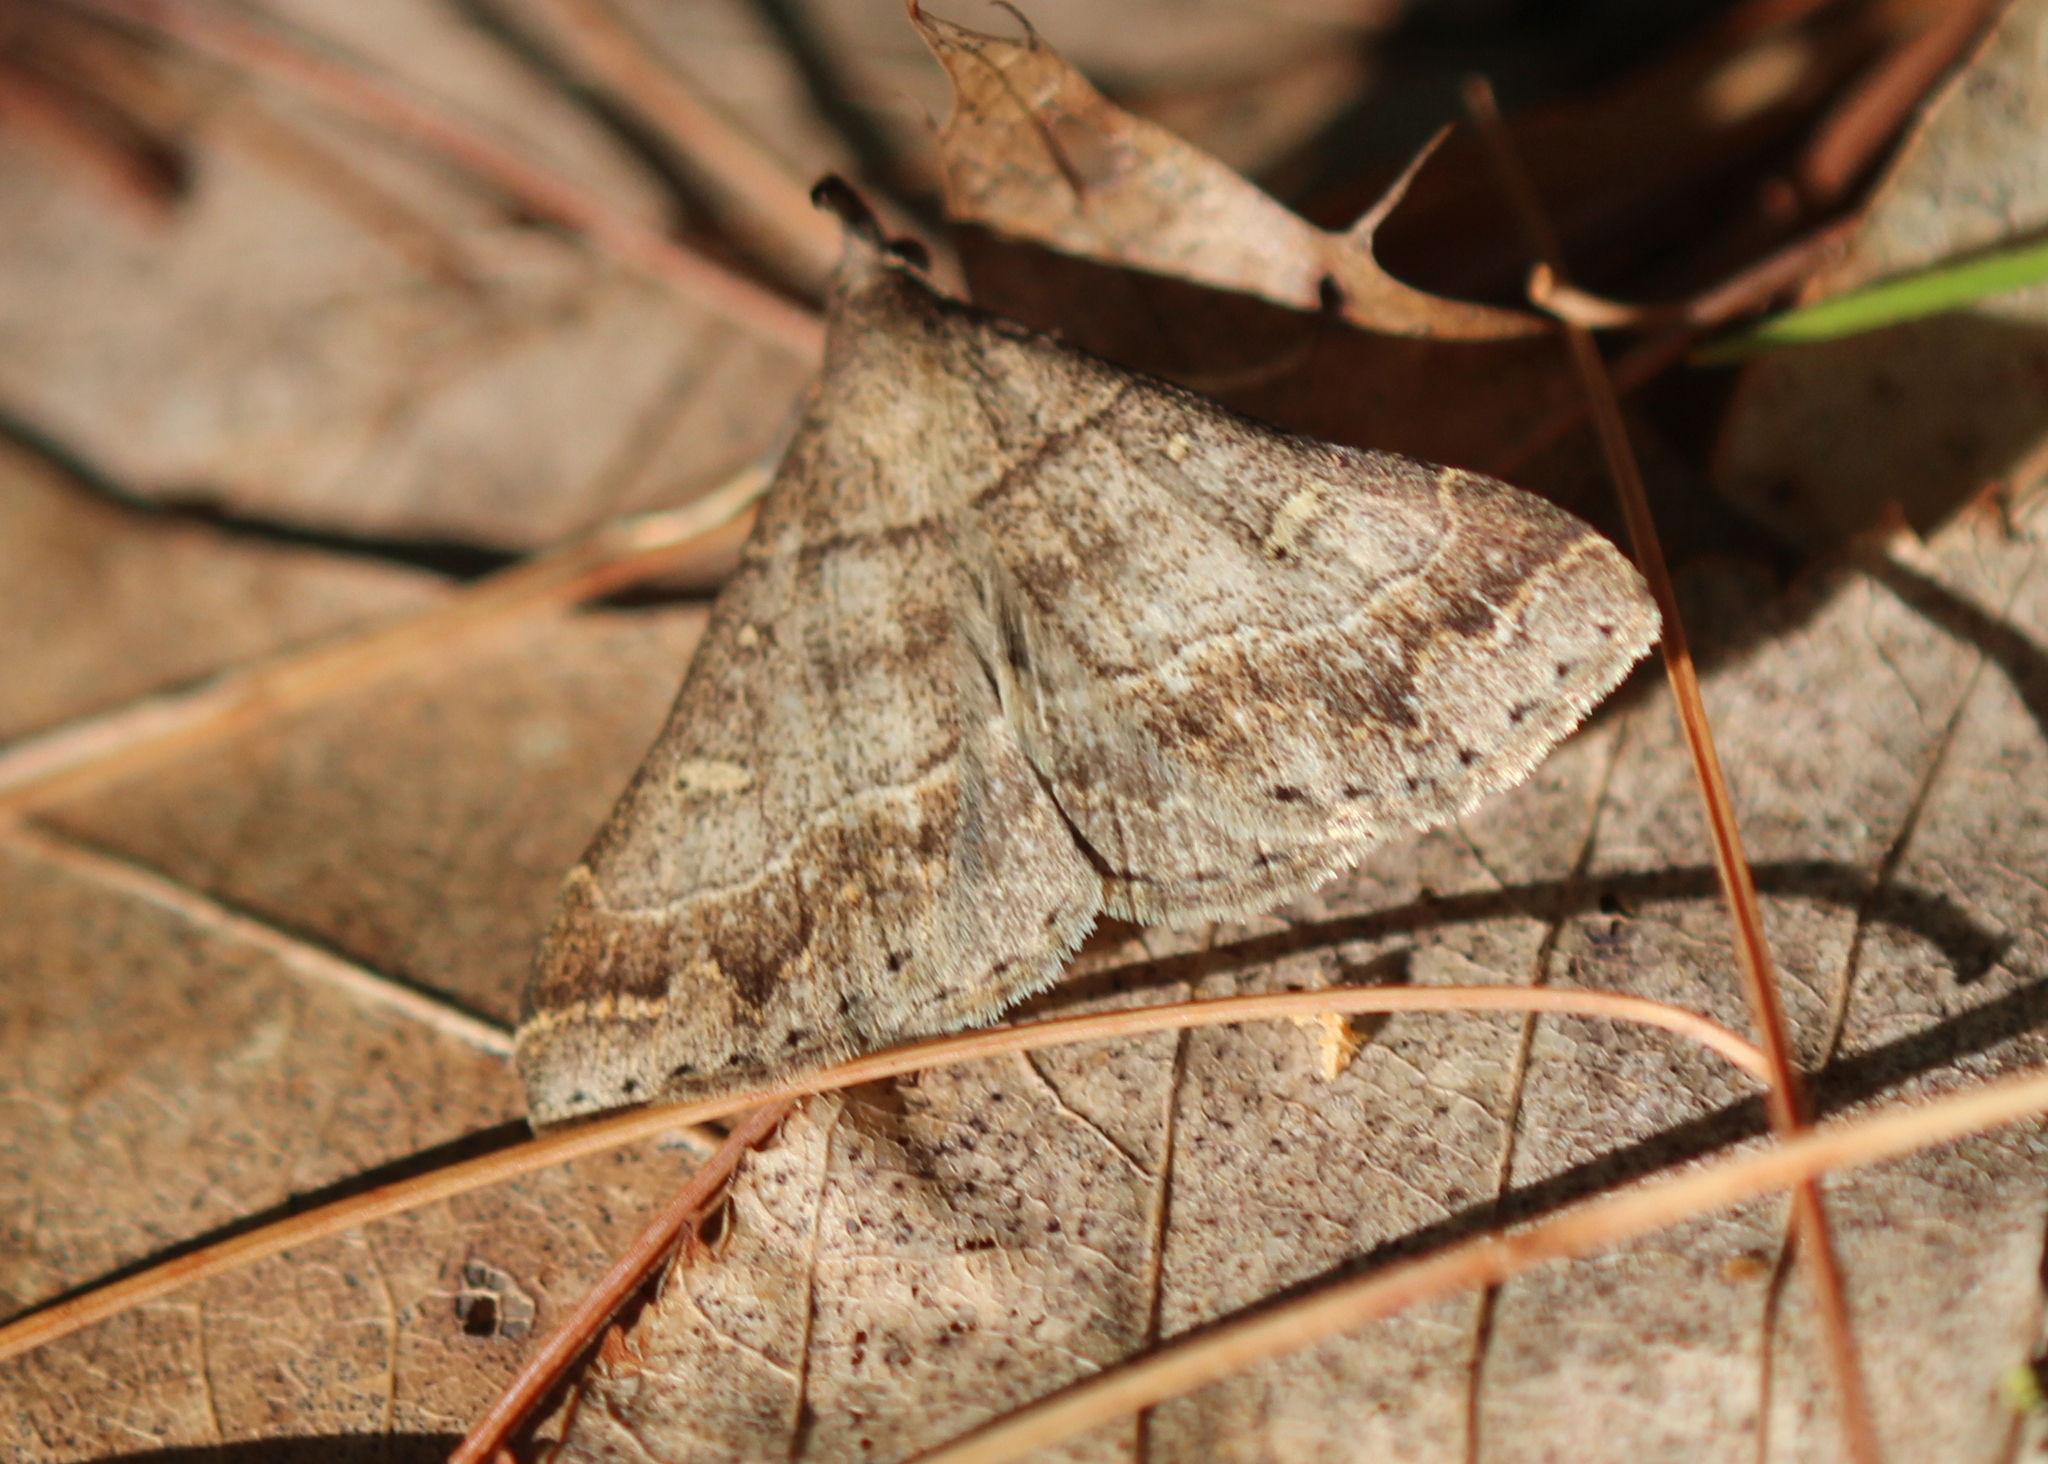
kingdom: Animalia
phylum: Arthropoda
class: Insecta
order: Lepidoptera
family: Erebidae
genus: Renia
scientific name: Renia flavipunctalis
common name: Yellow-spotted renia moth
